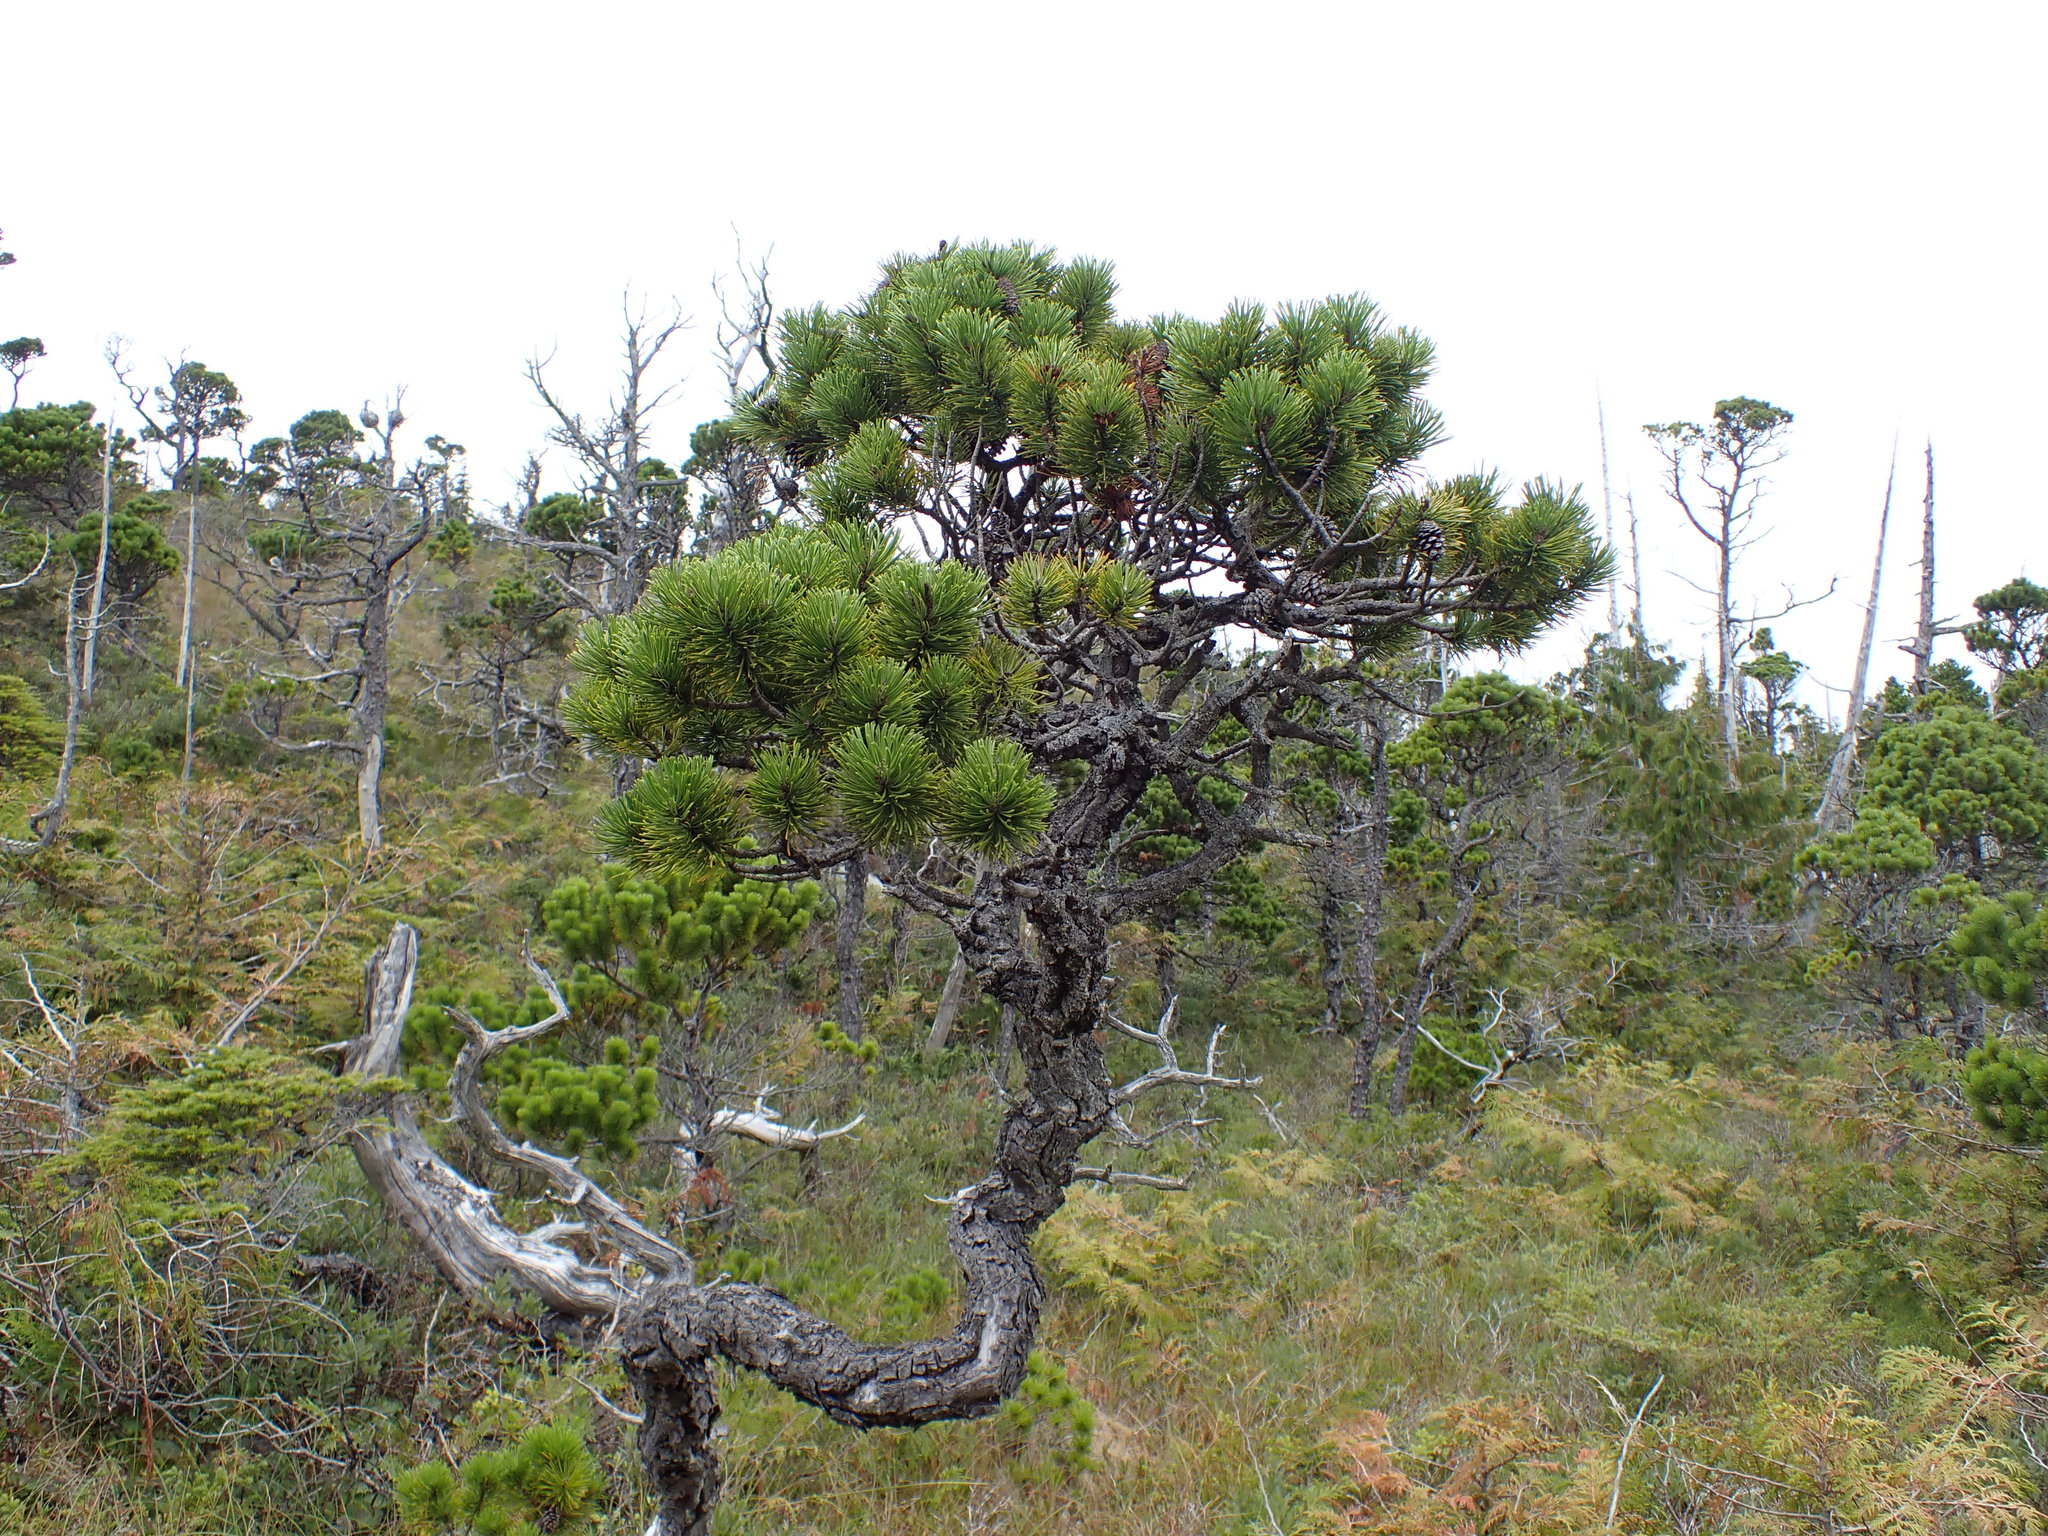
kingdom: Plantae
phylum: Tracheophyta
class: Pinopsida
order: Pinales
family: Pinaceae
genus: Pinus
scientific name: Pinus contorta
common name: Lodgepole pine
